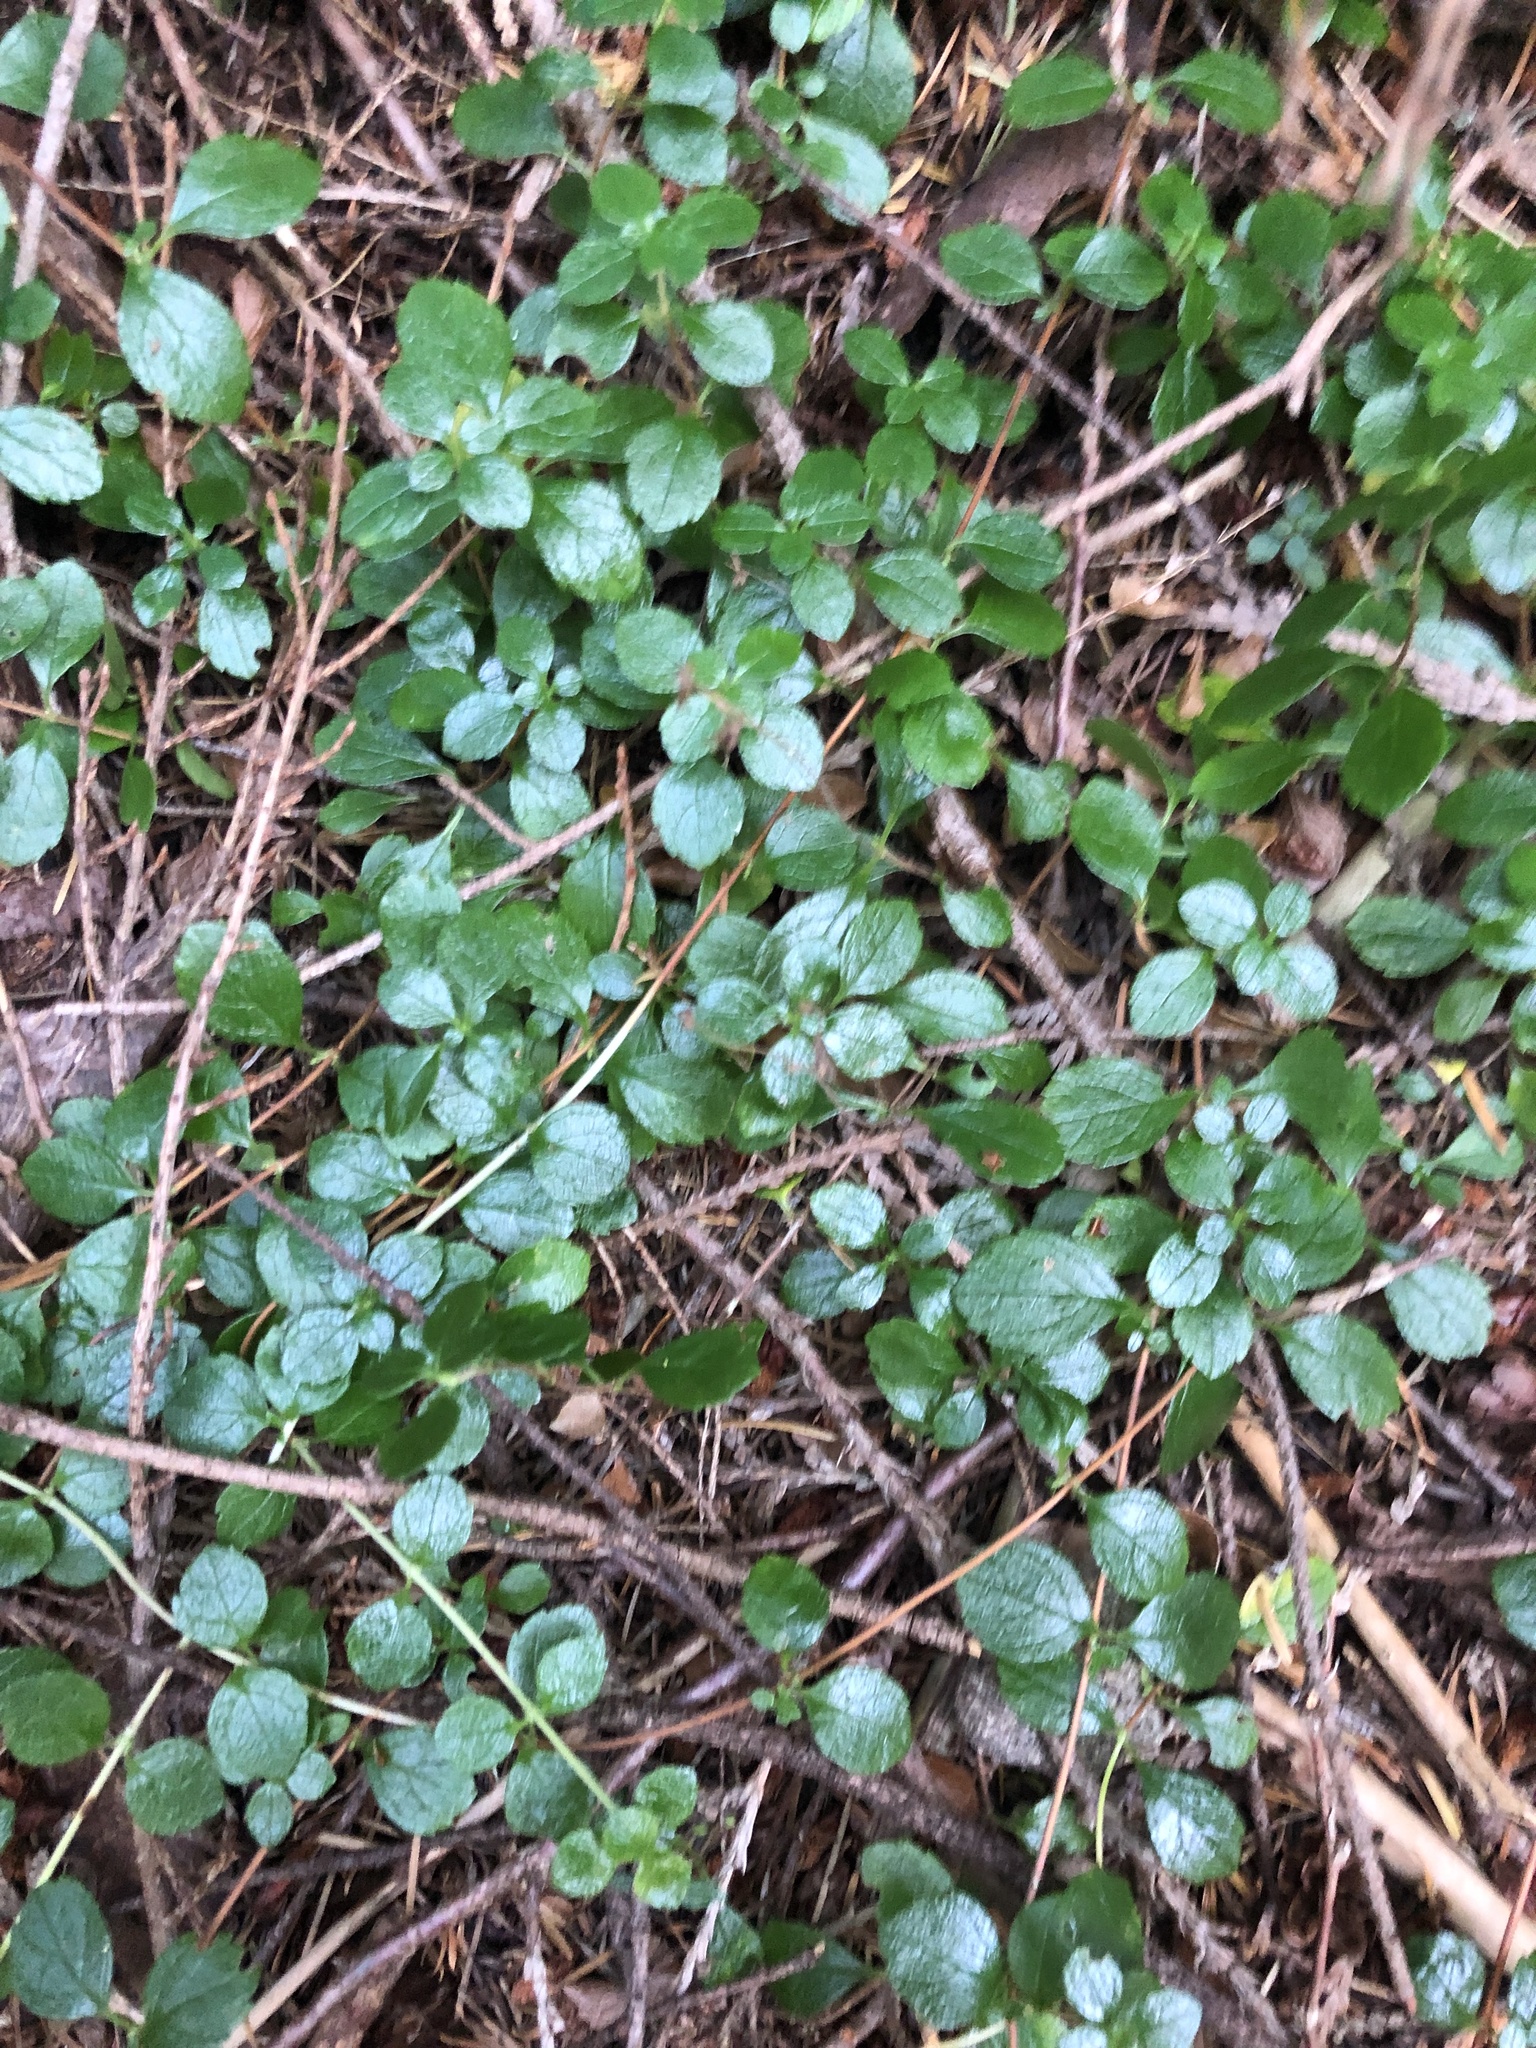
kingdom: Plantae
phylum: Tracheophyta
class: Magnoliopsida
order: Dipsacales
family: Caprifoliaceae
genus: Linnaea
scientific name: Linnaea borealis
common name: Twinflower
